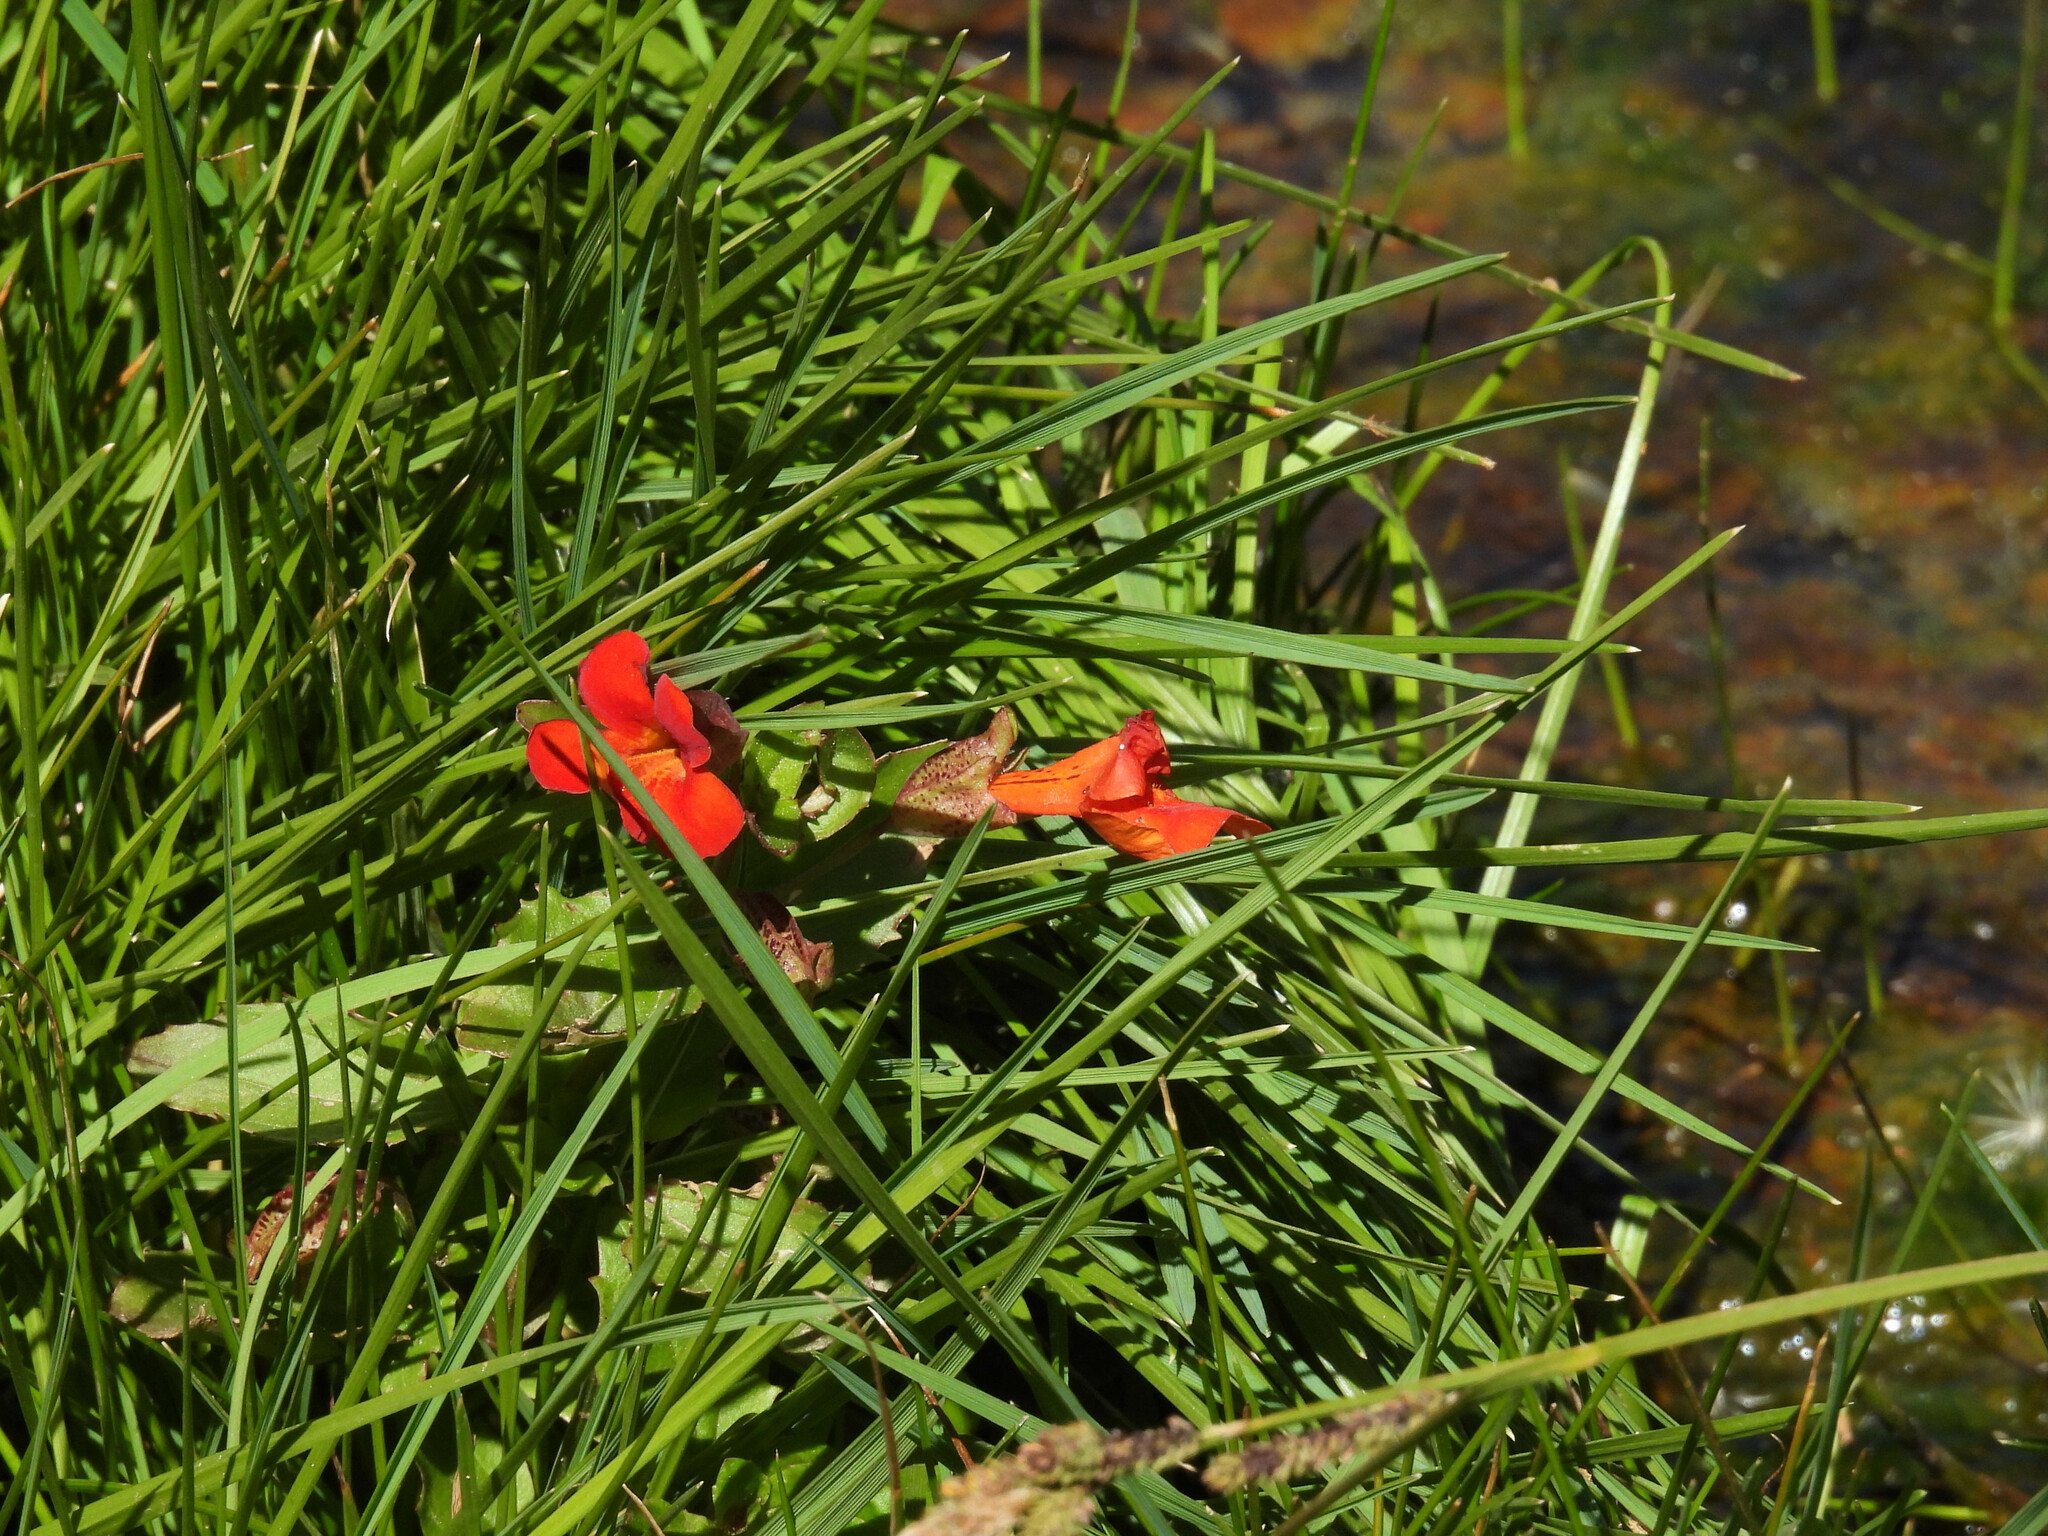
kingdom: Plantae
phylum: Tracheophyta
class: Magnoliopsida
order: Lamiales
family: Phrymaceae
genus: Erythranthe
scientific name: Erythranthe cuprea
